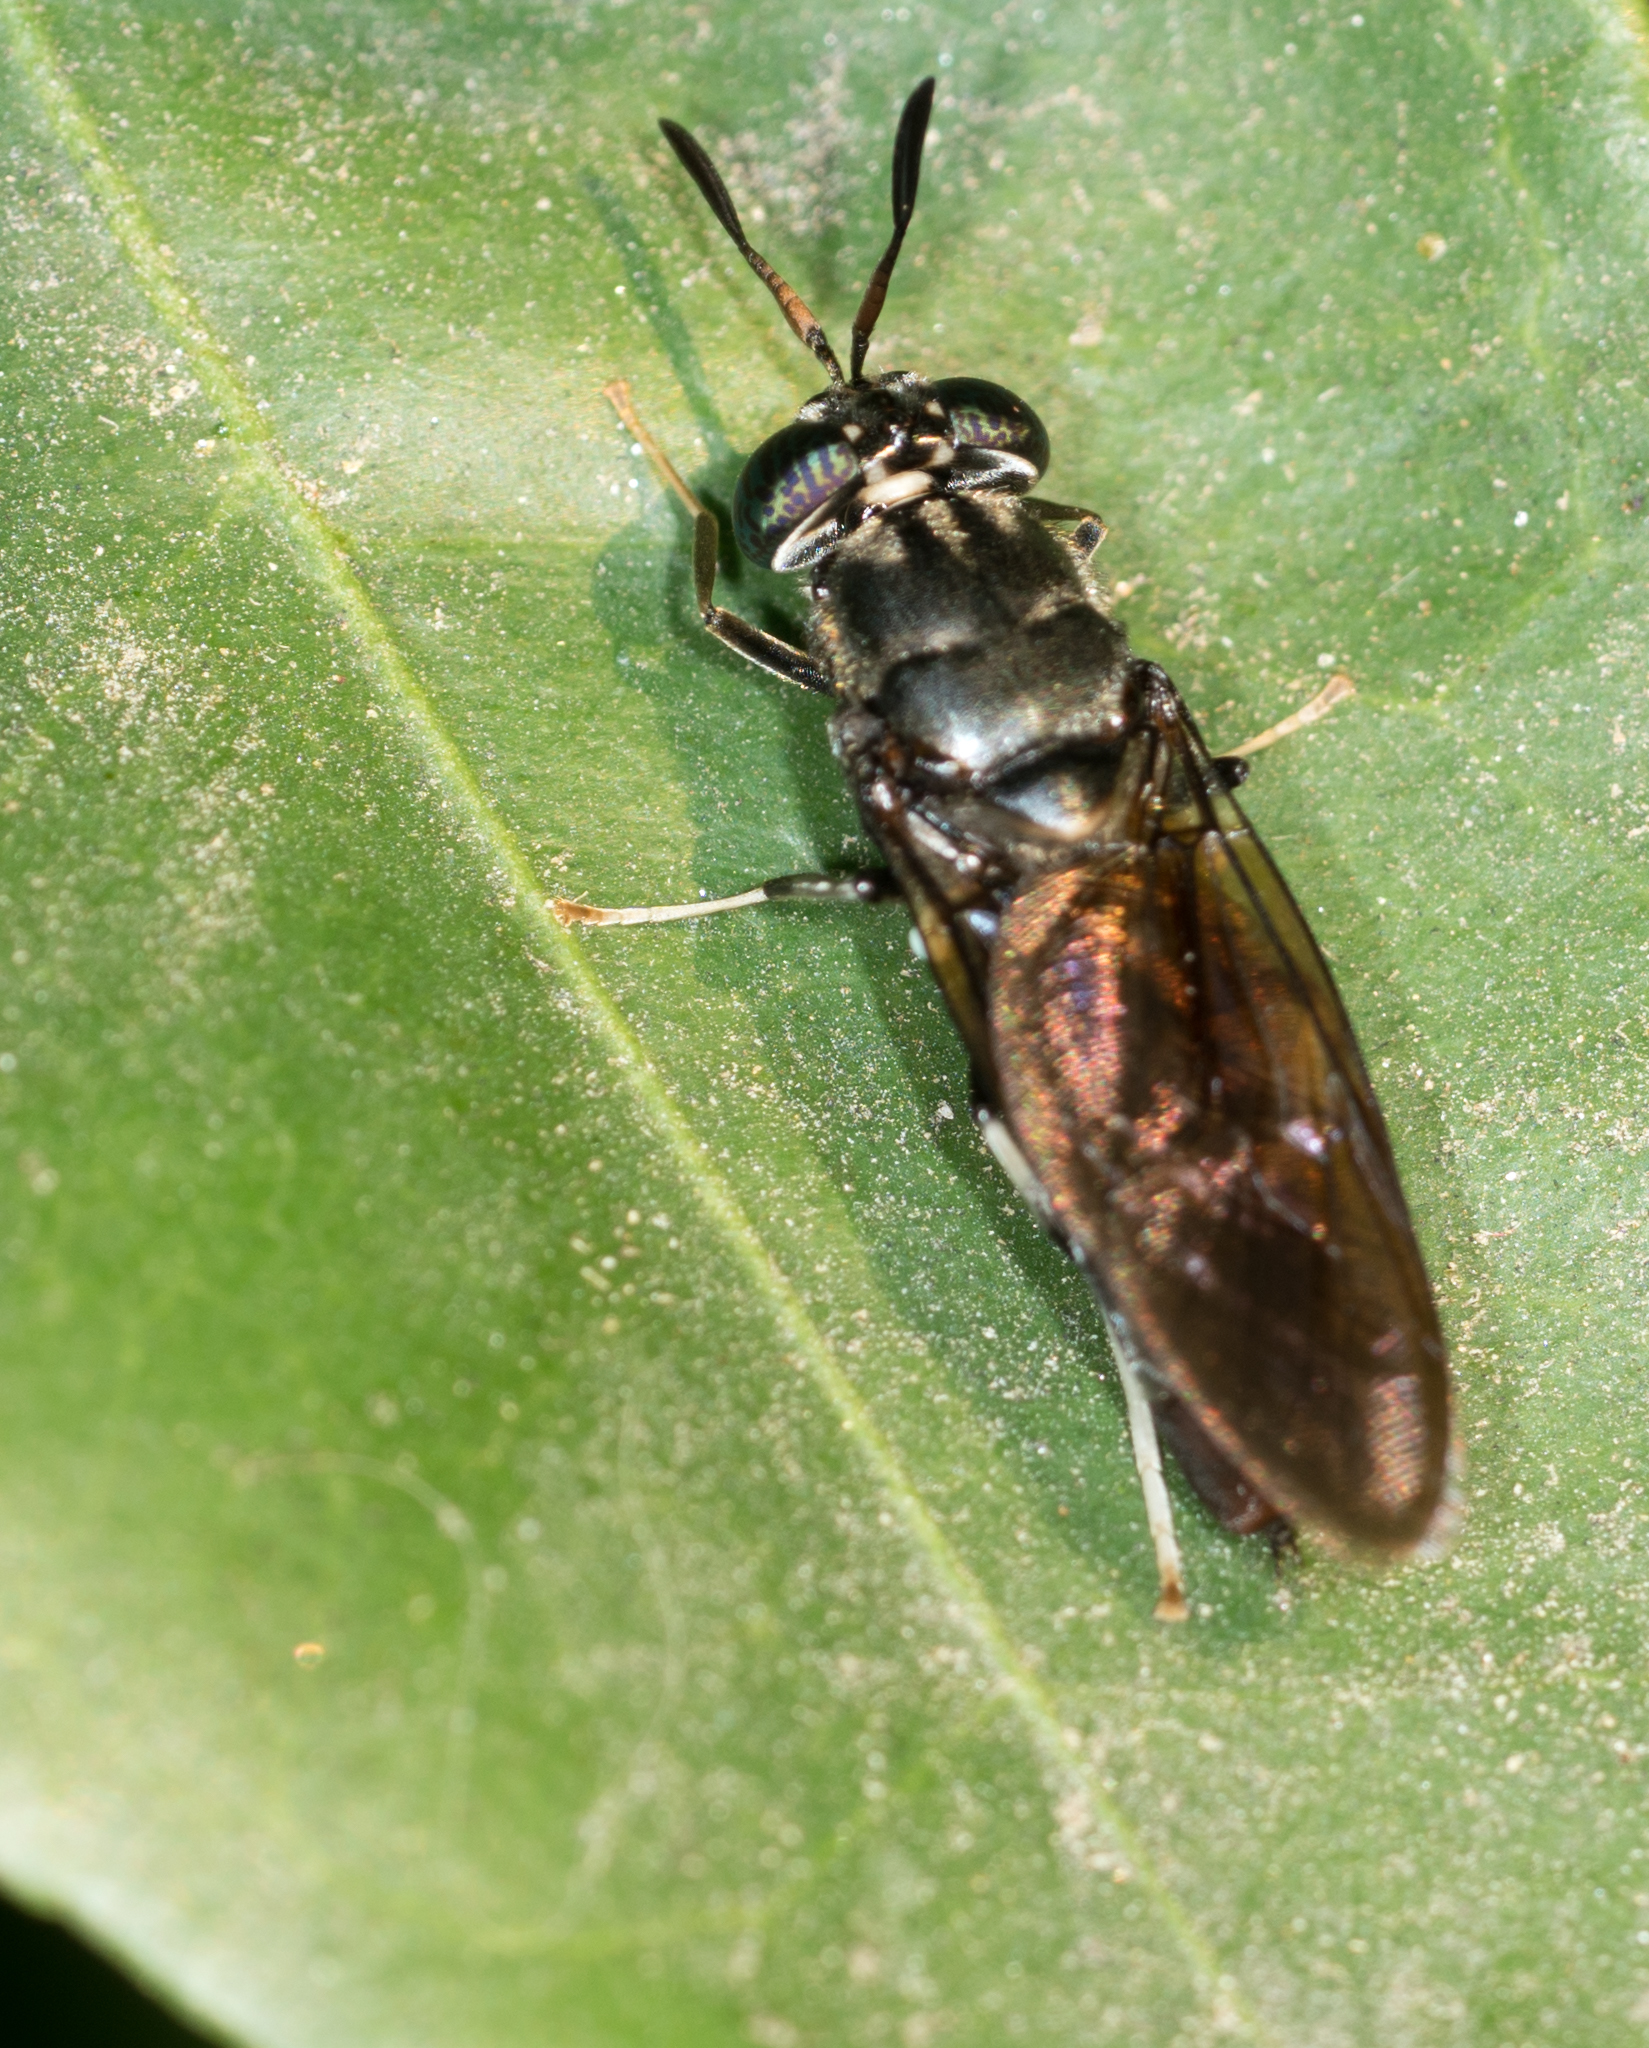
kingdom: Animalia
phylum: Arthropoda
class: Insecta
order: Diptera
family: Stratiomyidae
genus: Hermetia
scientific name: Hermetia illucens
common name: Black soldier fly
